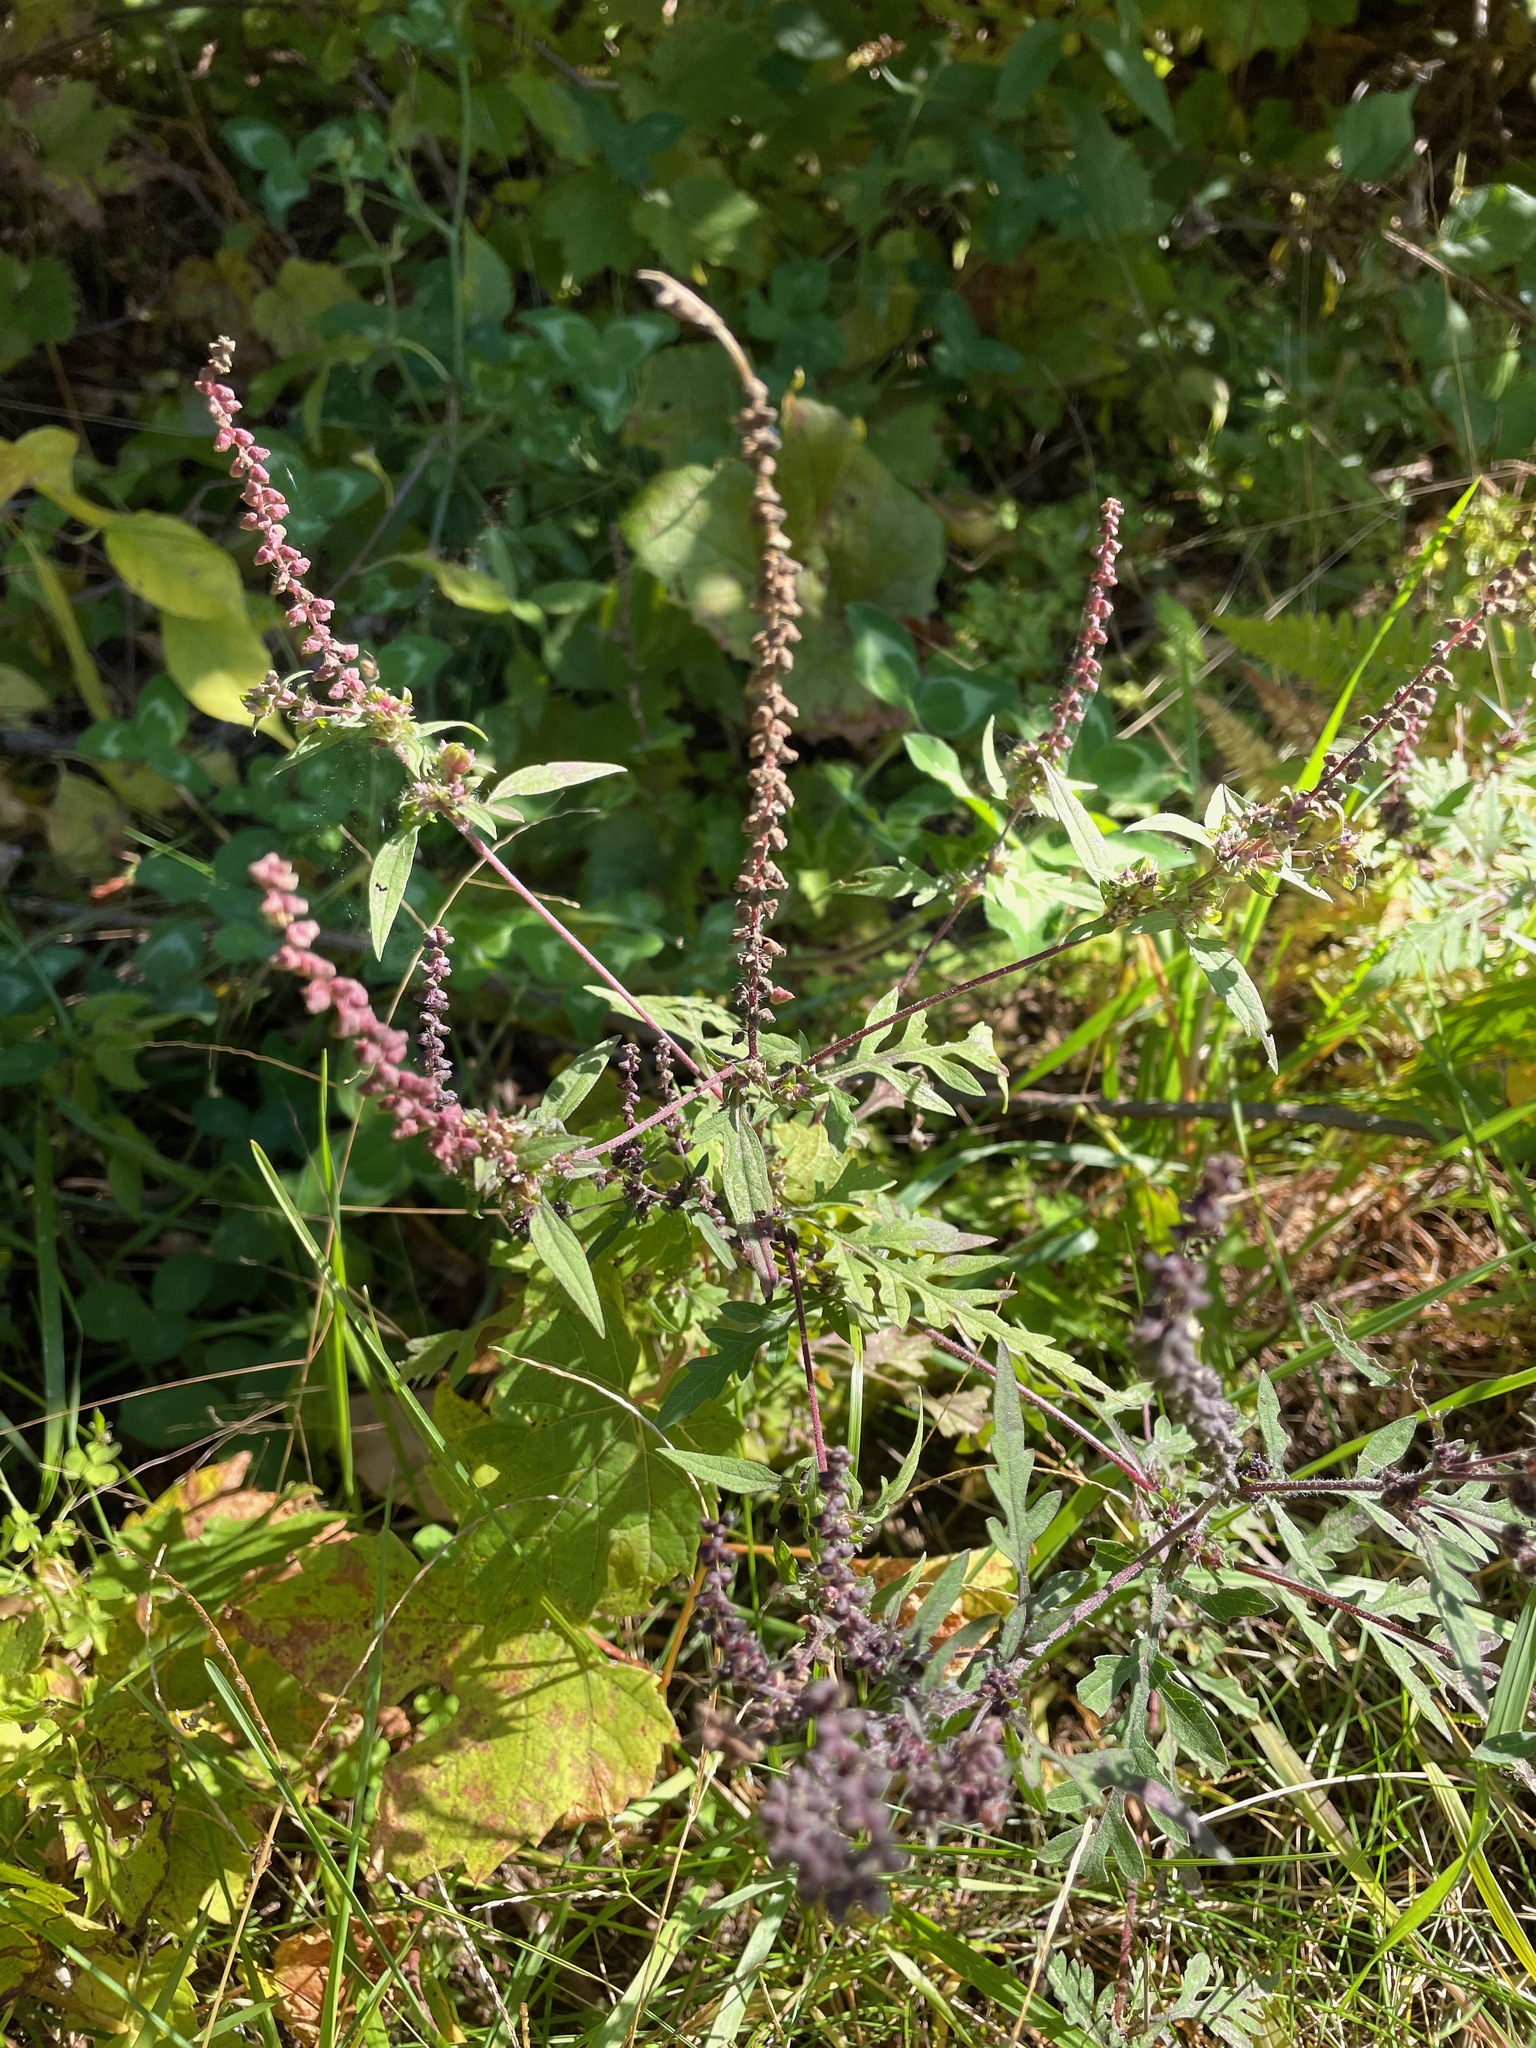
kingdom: Plantae
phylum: Tracheophyta
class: Magnoliopsida
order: Asterales
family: Asteraceae
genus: Ambrosia
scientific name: Ambrosia artemisiifolia
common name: Annual ragweed
